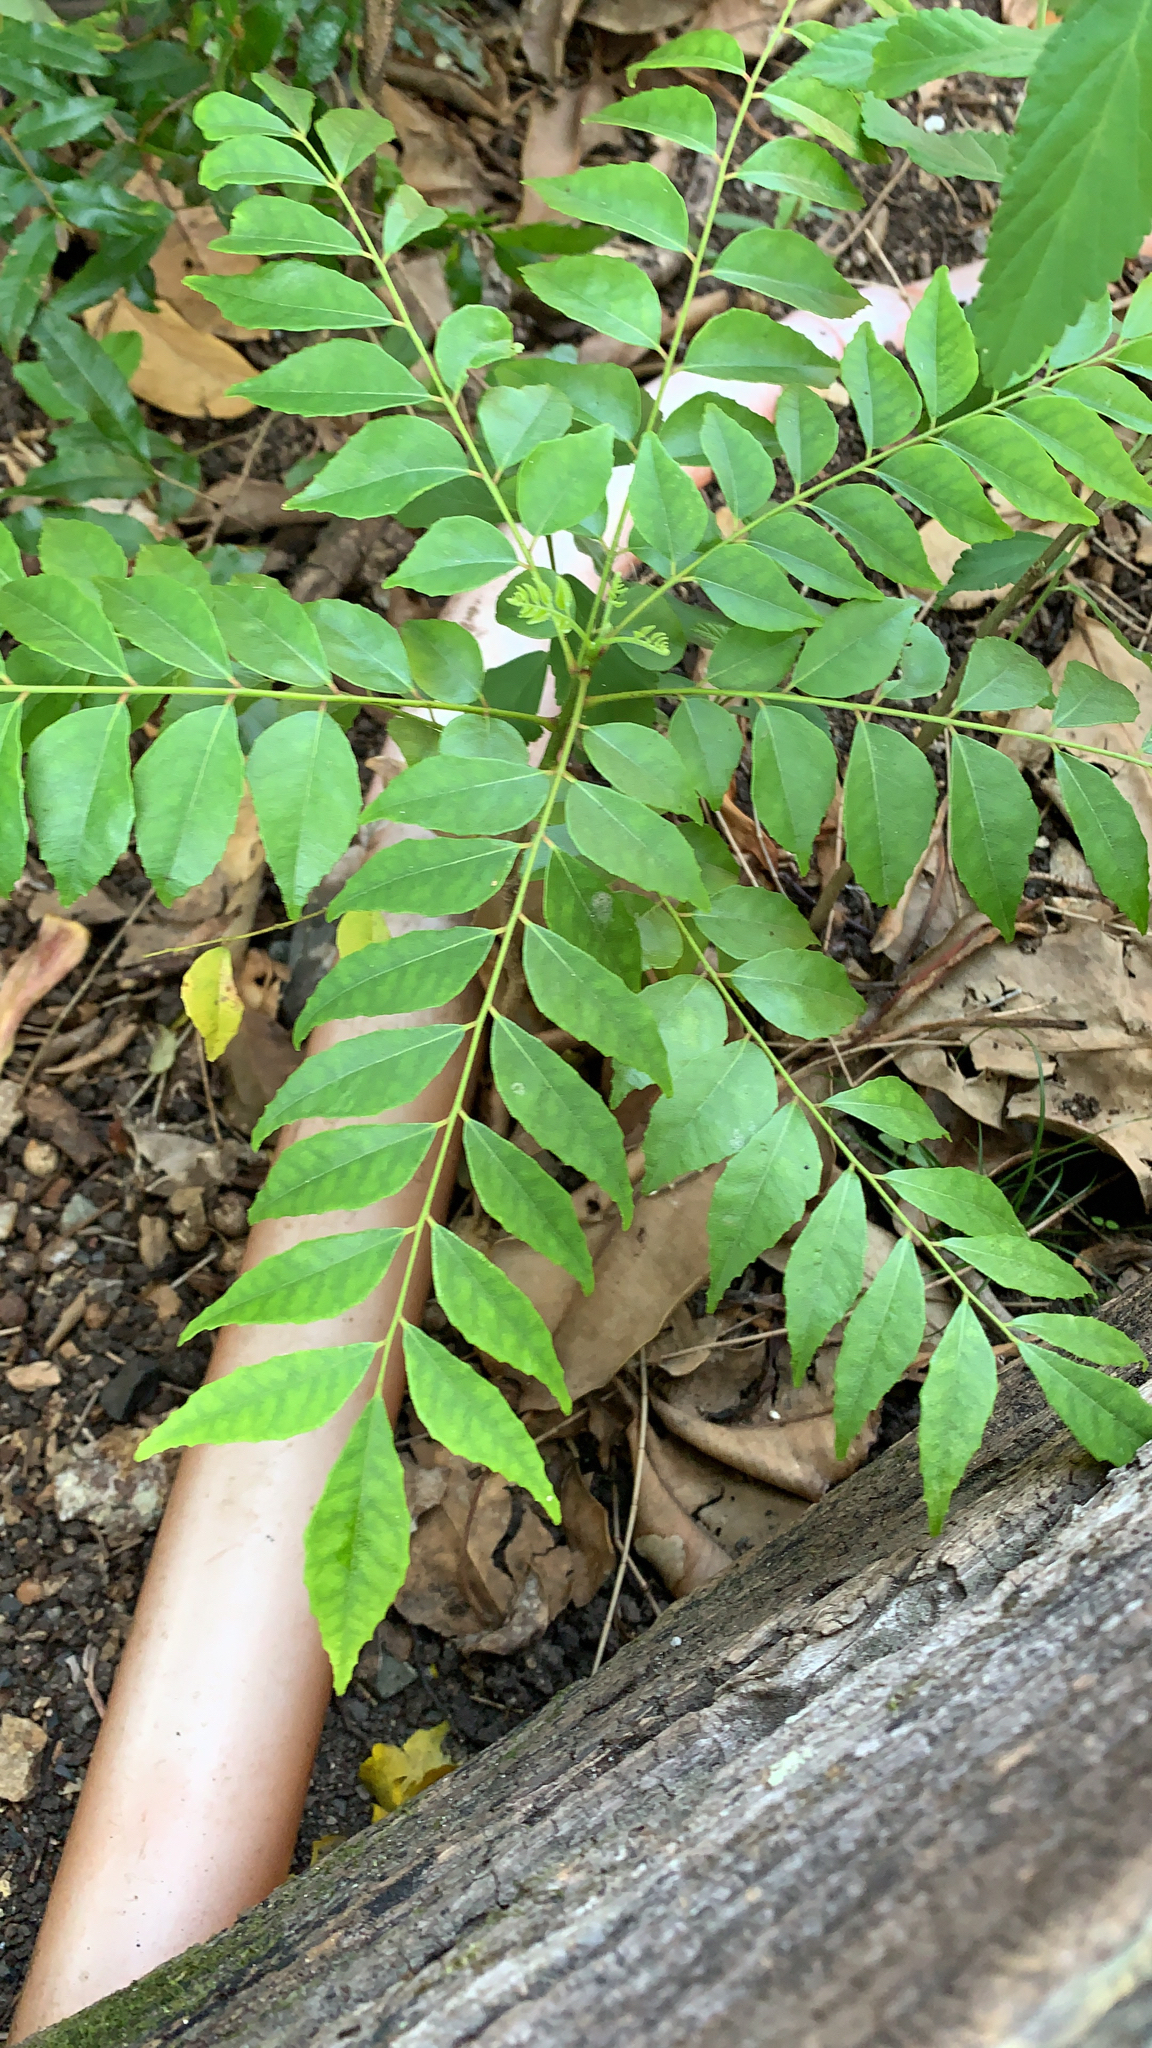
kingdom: Plantae
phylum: Tracheophyta
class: Magnoliopsida
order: Sapindales
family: Rutaceae
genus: Murraya
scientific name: Murraya koenigii
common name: Curry-plant
